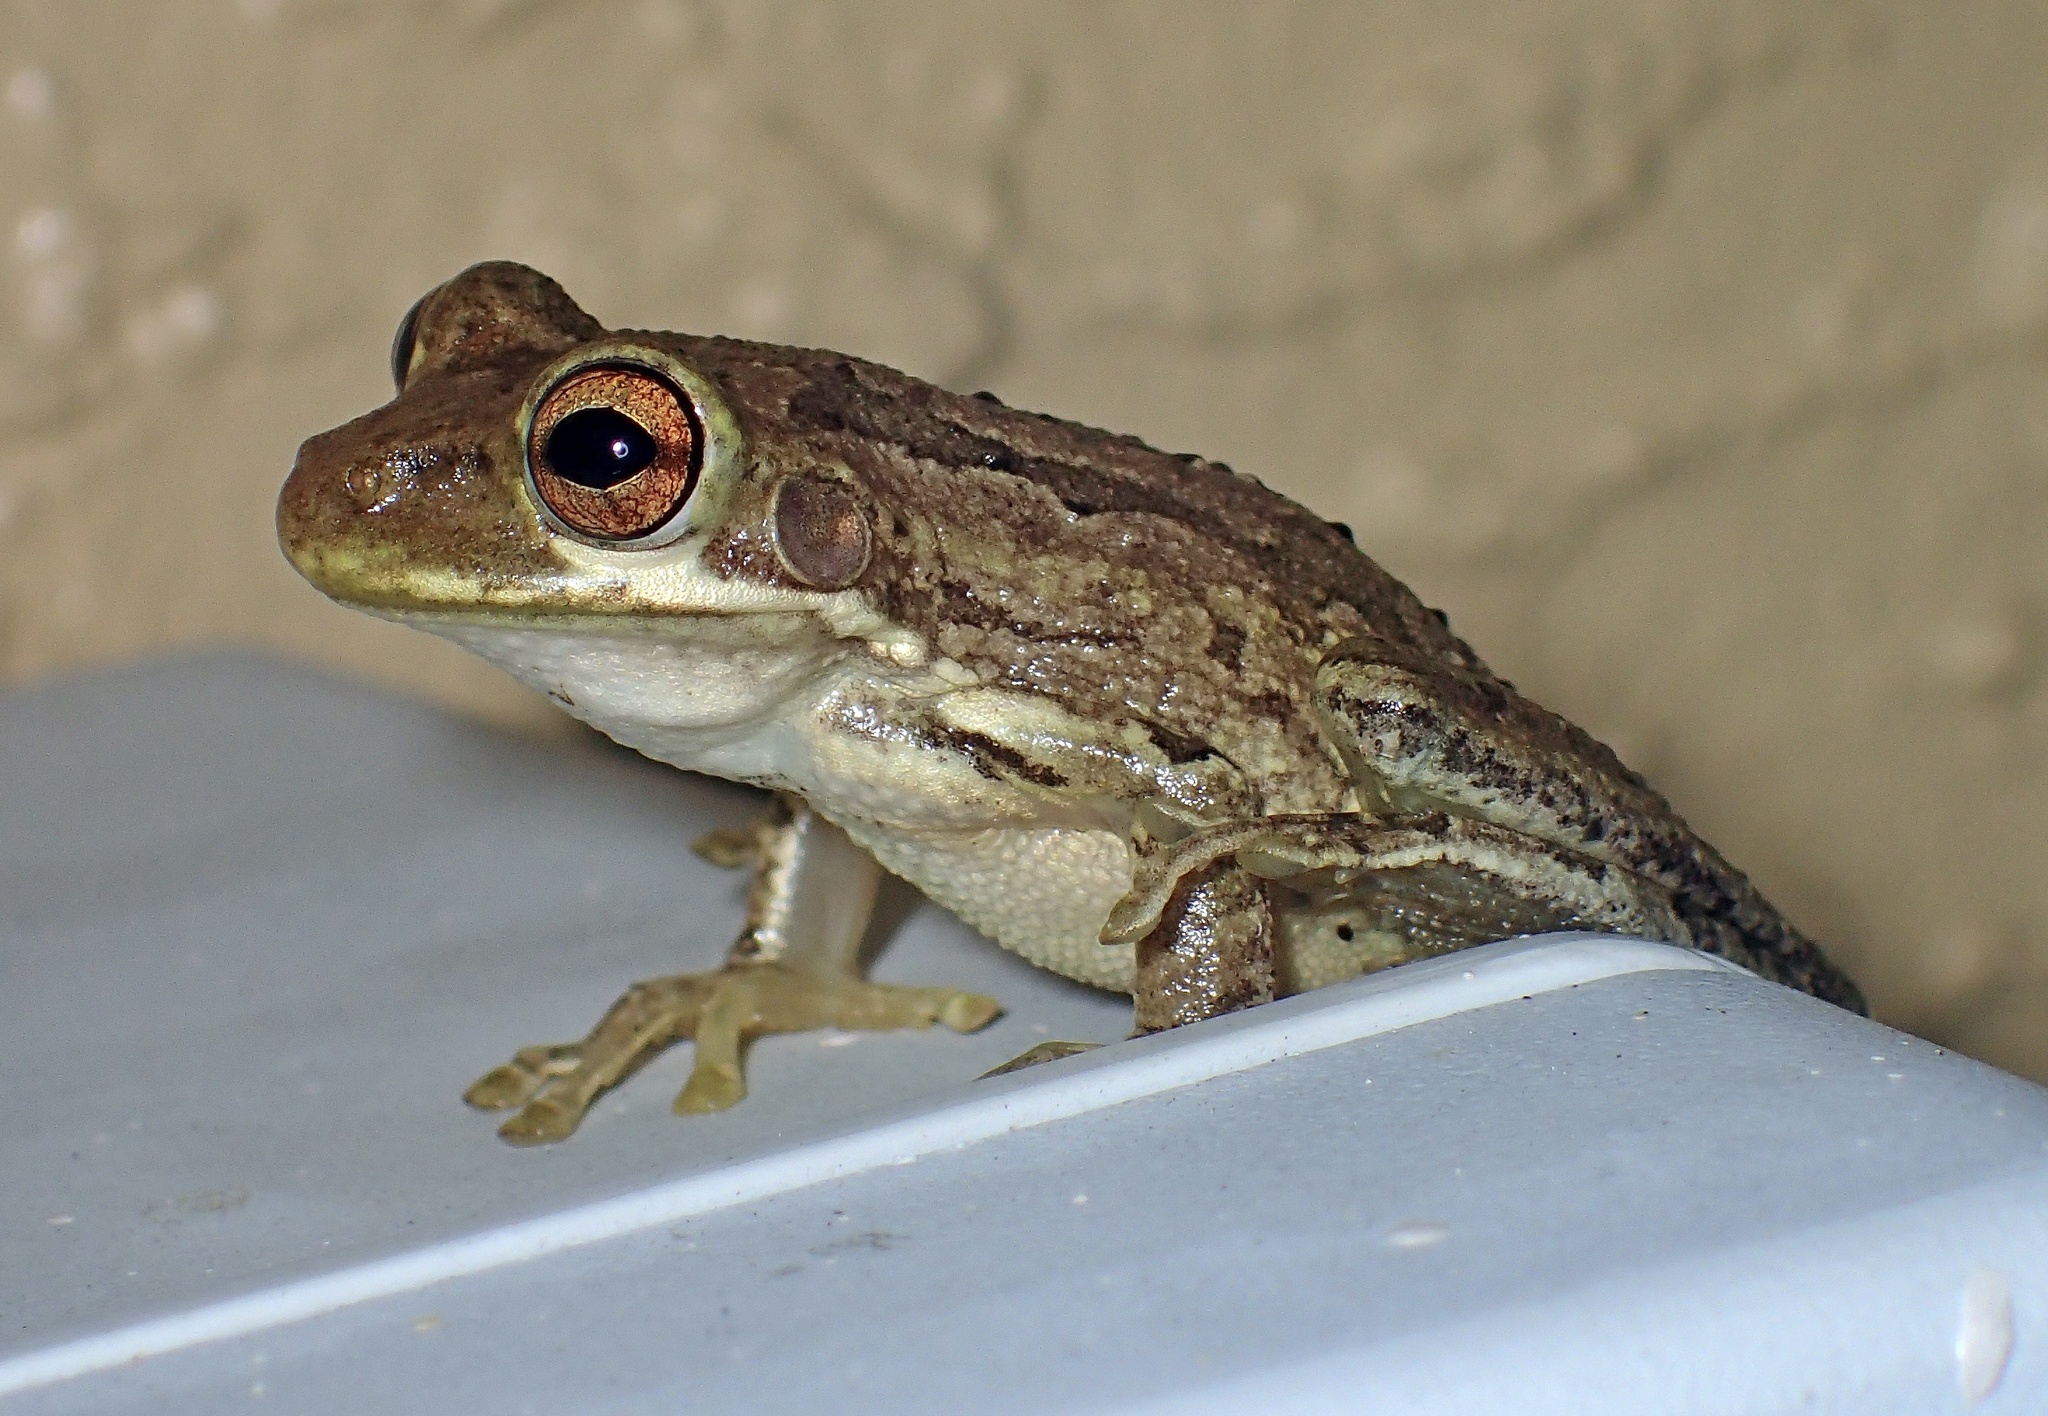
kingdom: Animalia
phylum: Chordata
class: Amphibia
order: Anura
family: Hylidae
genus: Osteopilus
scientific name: Osteopilus septentrionalis
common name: Cuban treefrog
